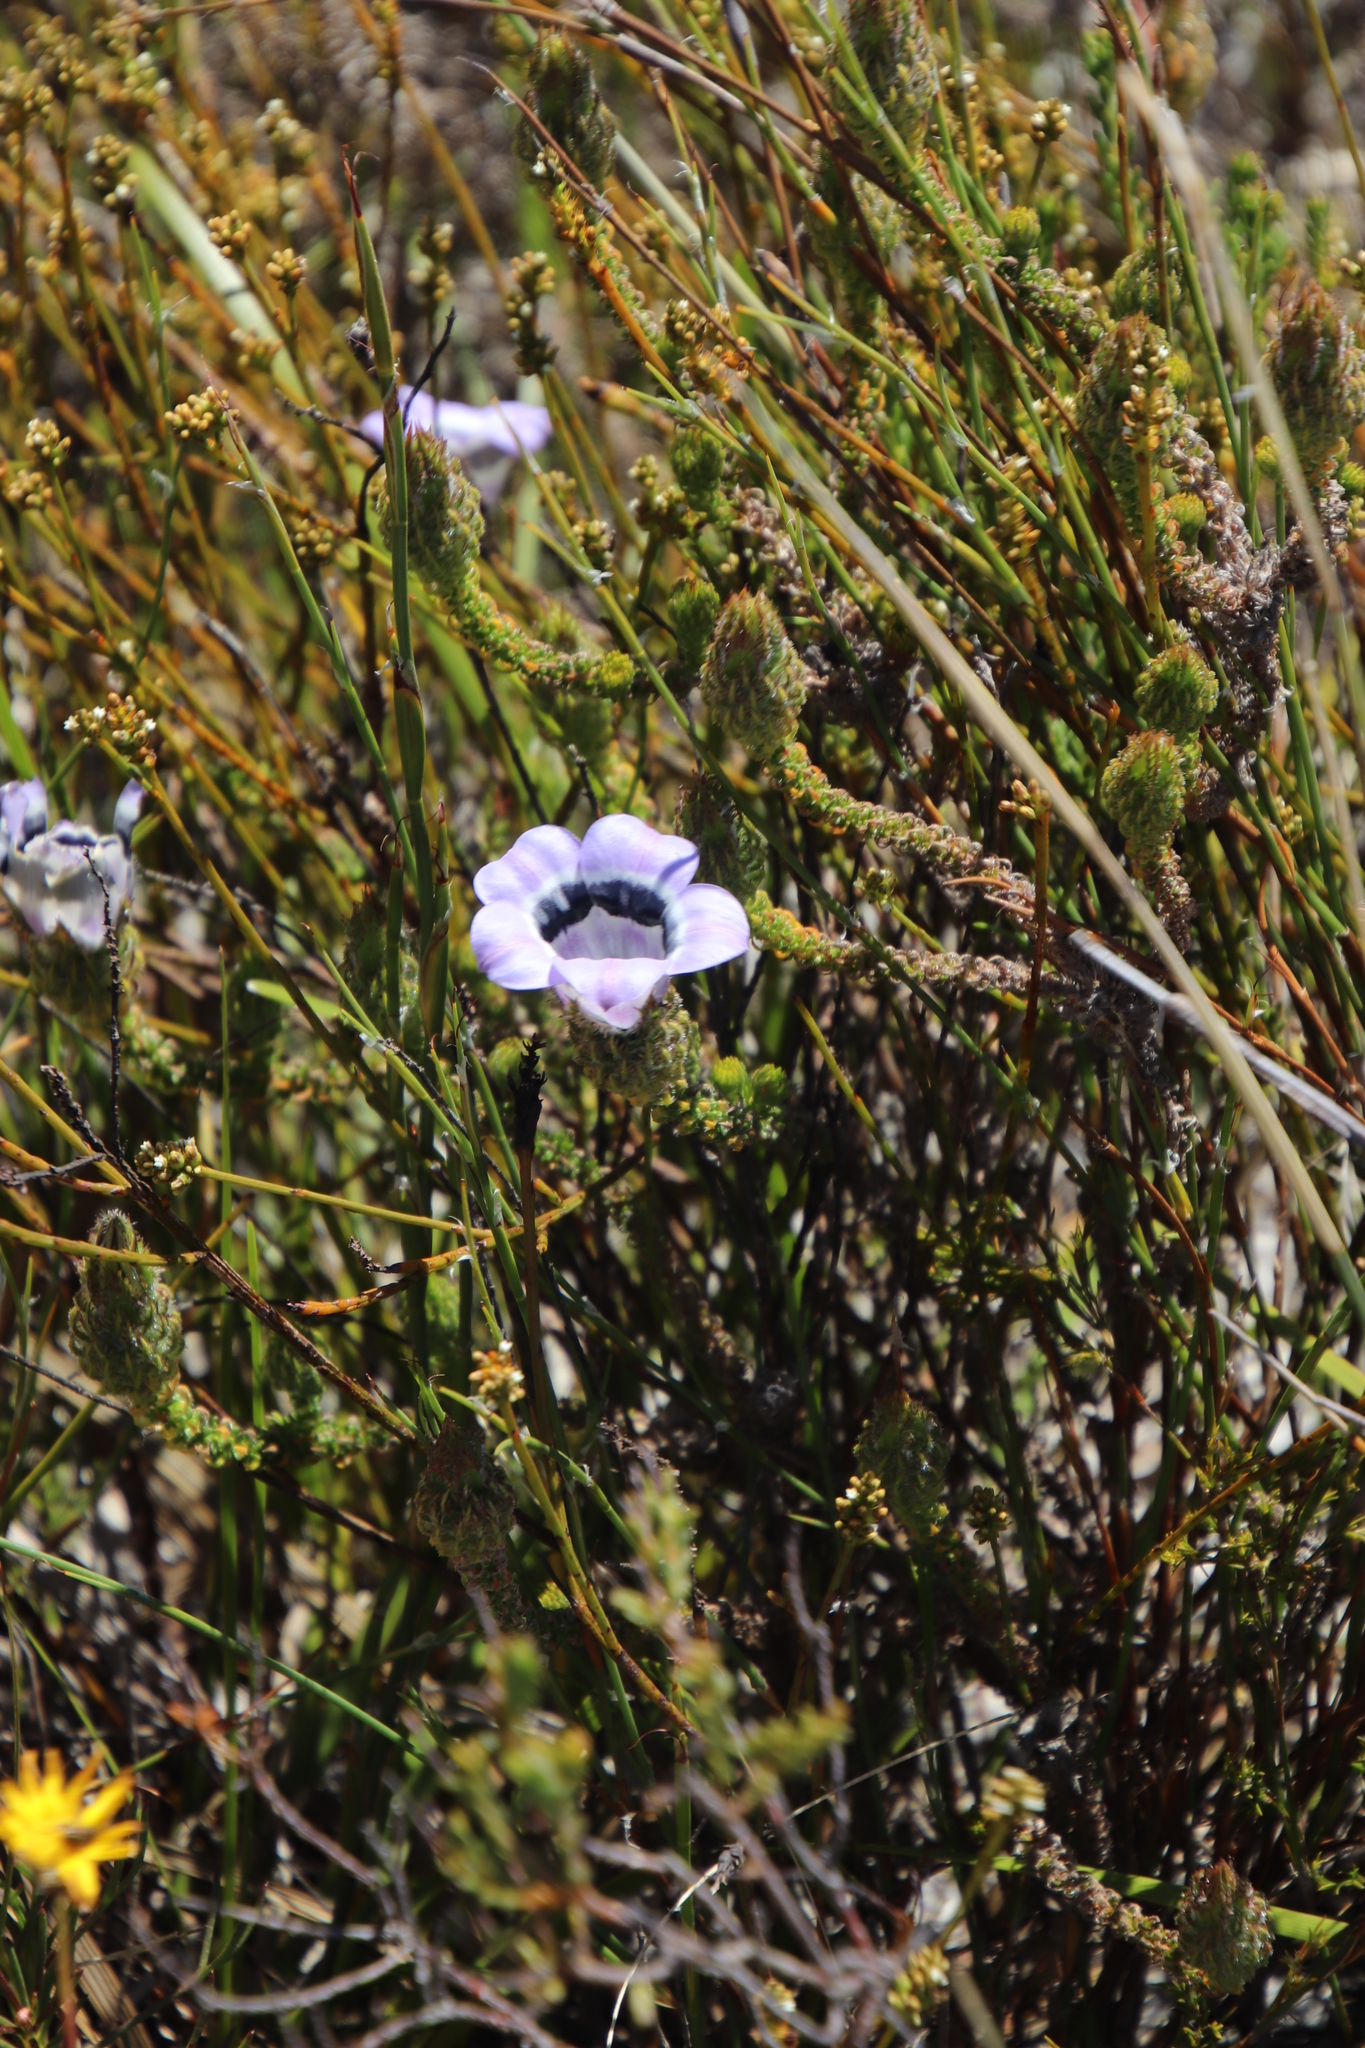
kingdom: Plantae
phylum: Tracheophyta
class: Magnoliopsida
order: Asterales
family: Campanulaceae
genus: Roella
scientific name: Roella ciliata
